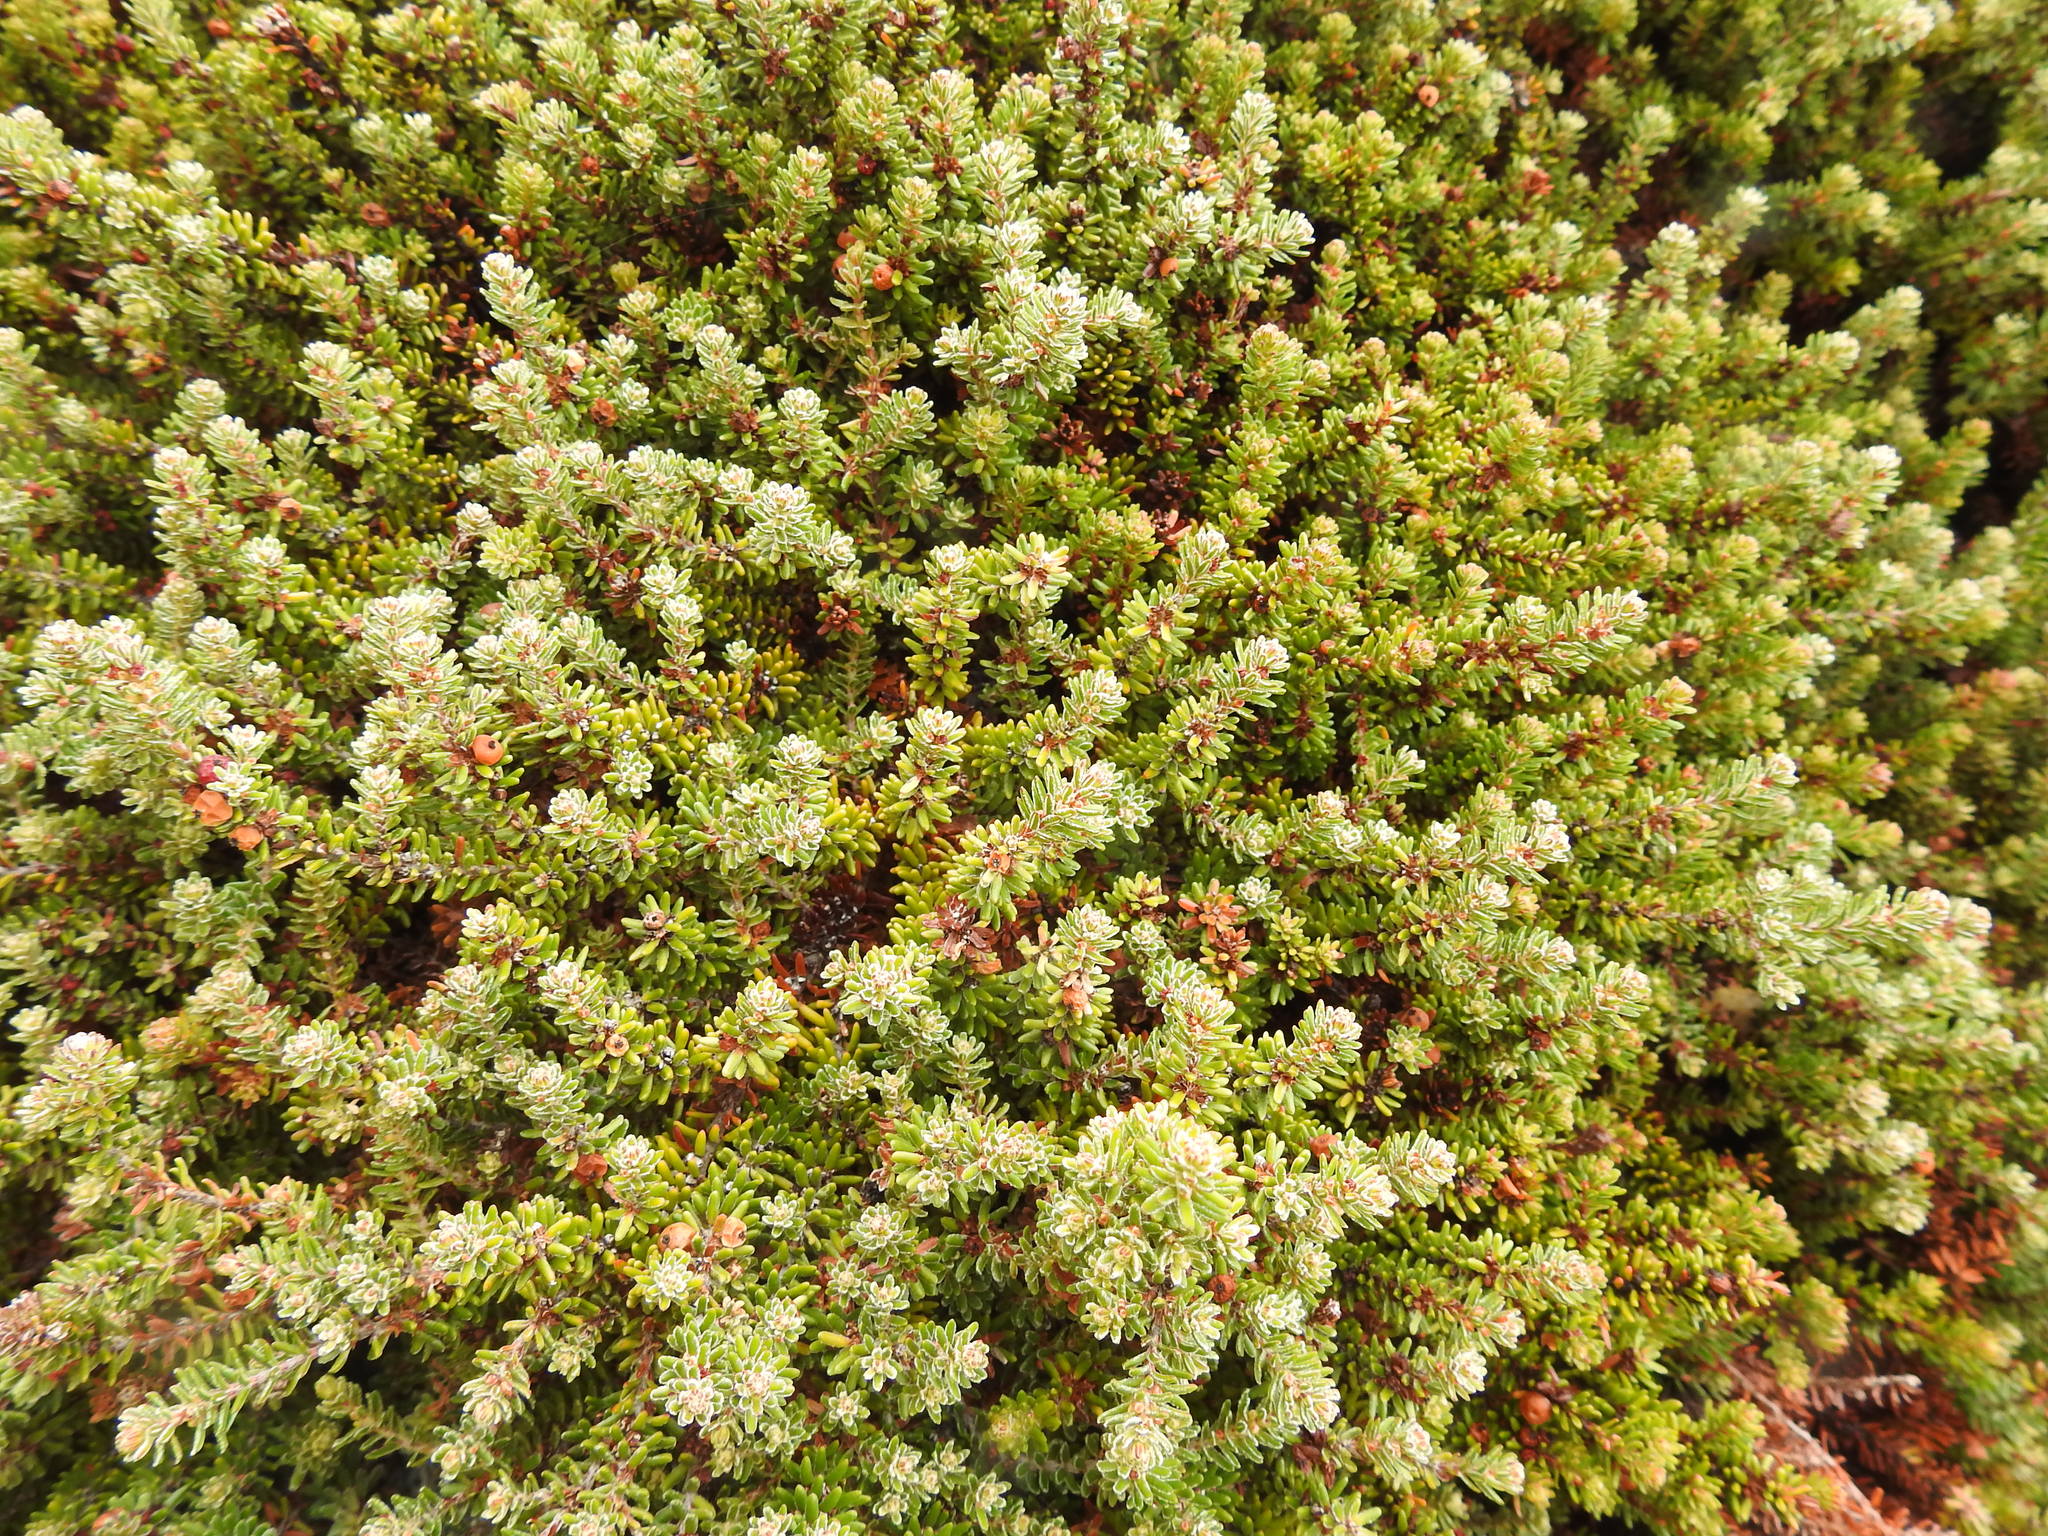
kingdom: Plantae
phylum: Tracheophyta
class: Magnoliopsida
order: Ericales
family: Ericaceae
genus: Empetrum
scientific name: Empetrum rubrum
